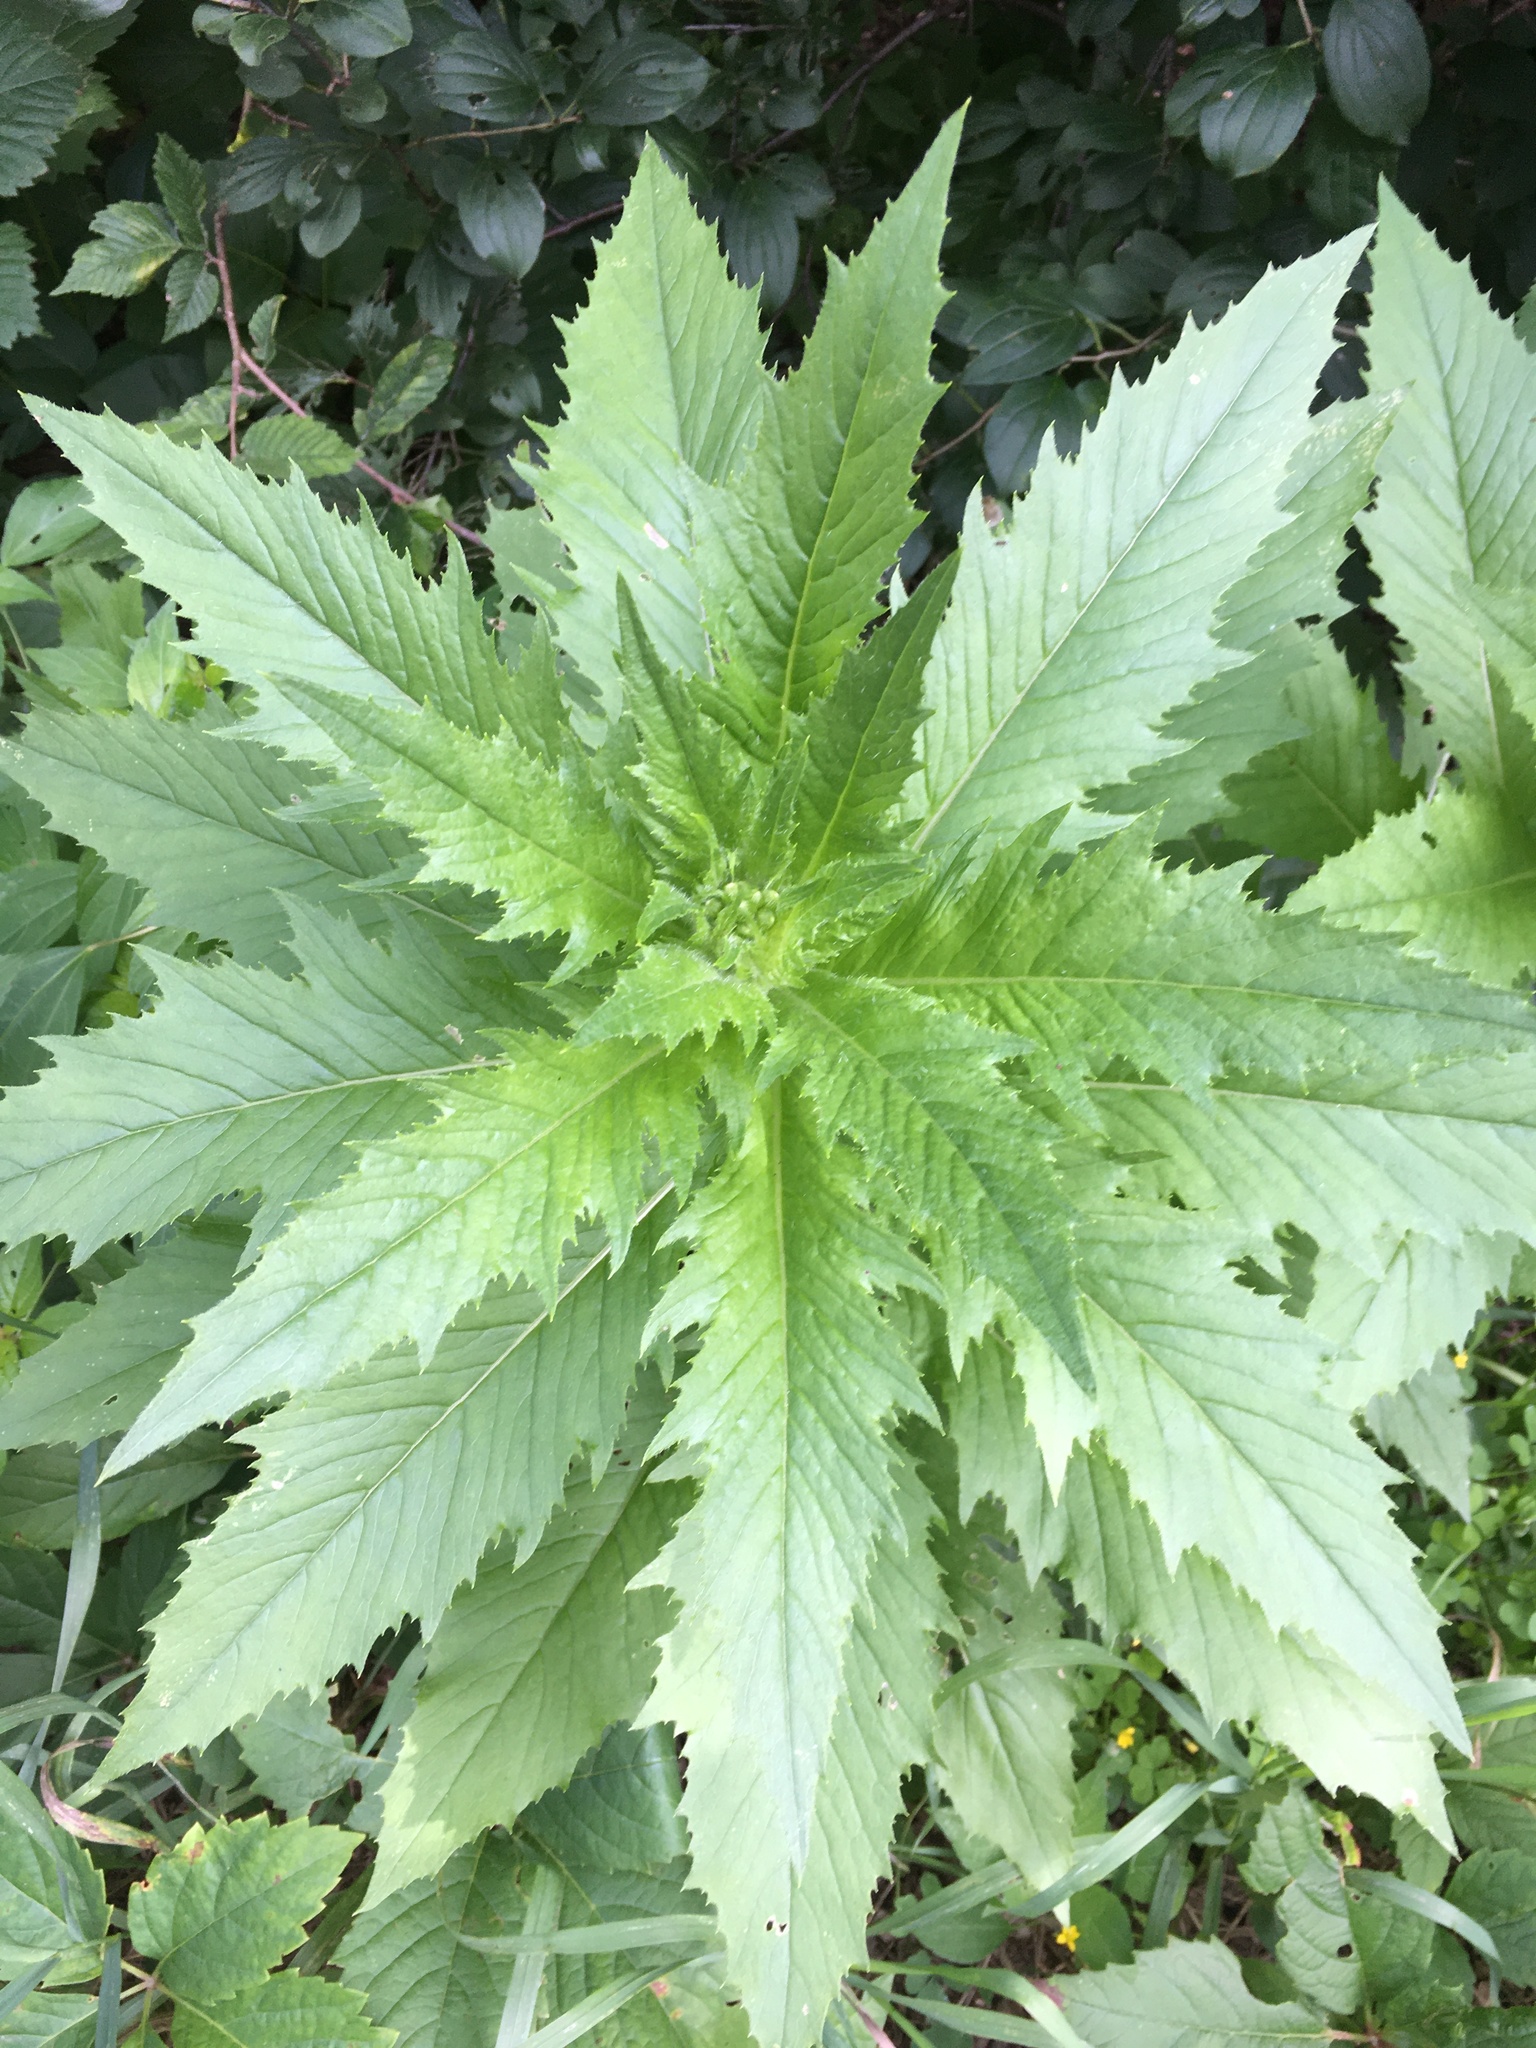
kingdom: Plantae
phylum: Tracheophyta
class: Magnoliopsida
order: Asterales
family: Asteraceae
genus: Erechtites
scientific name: Erechtites hieraciifolius
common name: American burnweed
